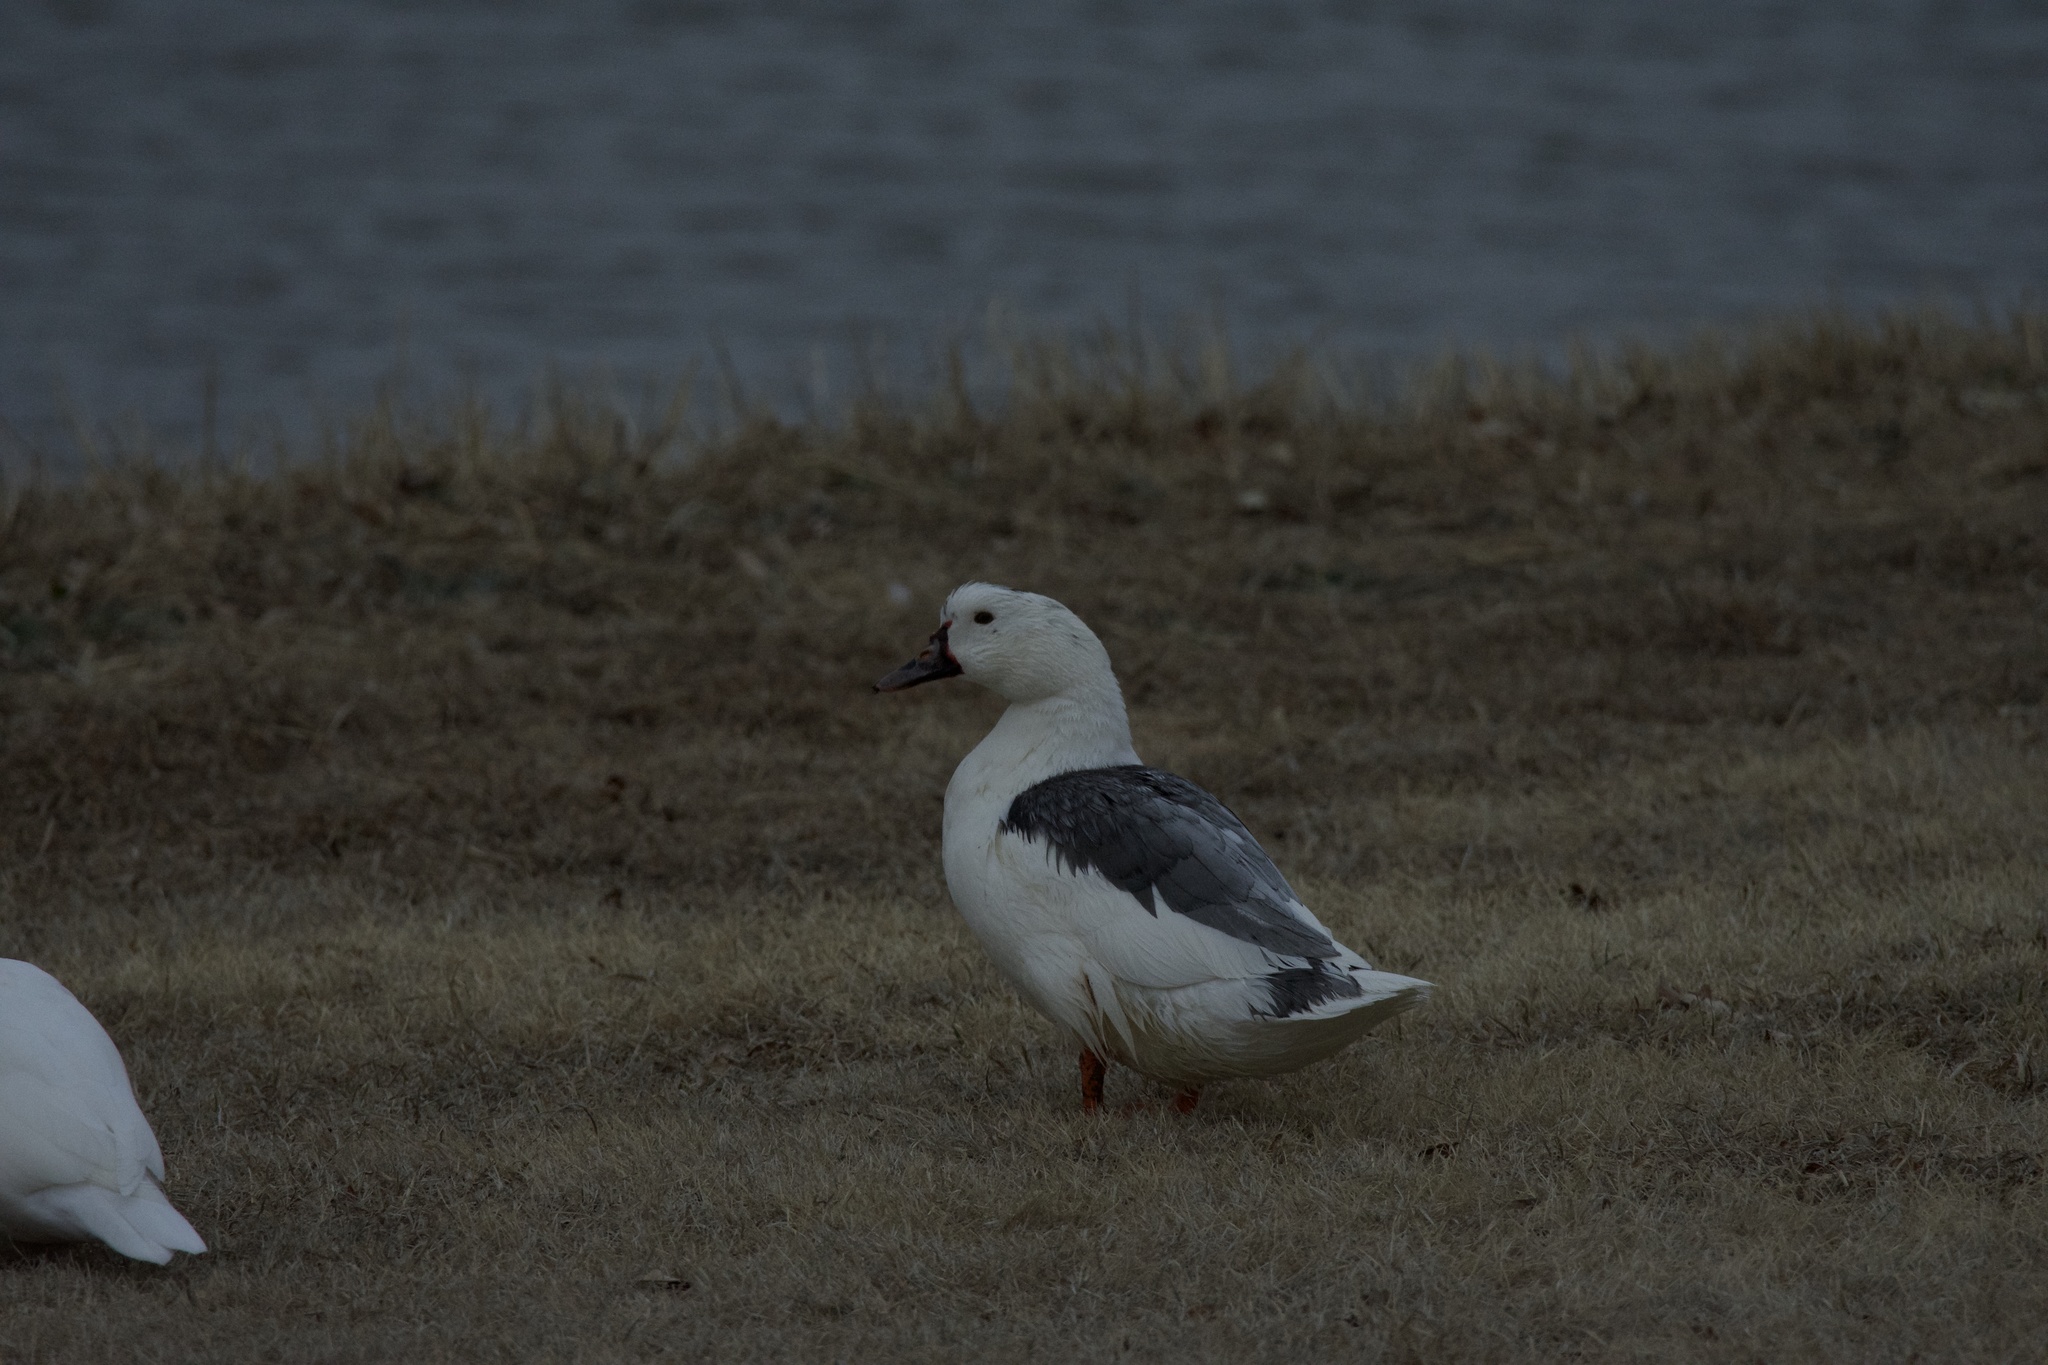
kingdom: Animalia
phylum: Chordata
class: Aves
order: Anseriformes
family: Anatidae
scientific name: Anatidae
